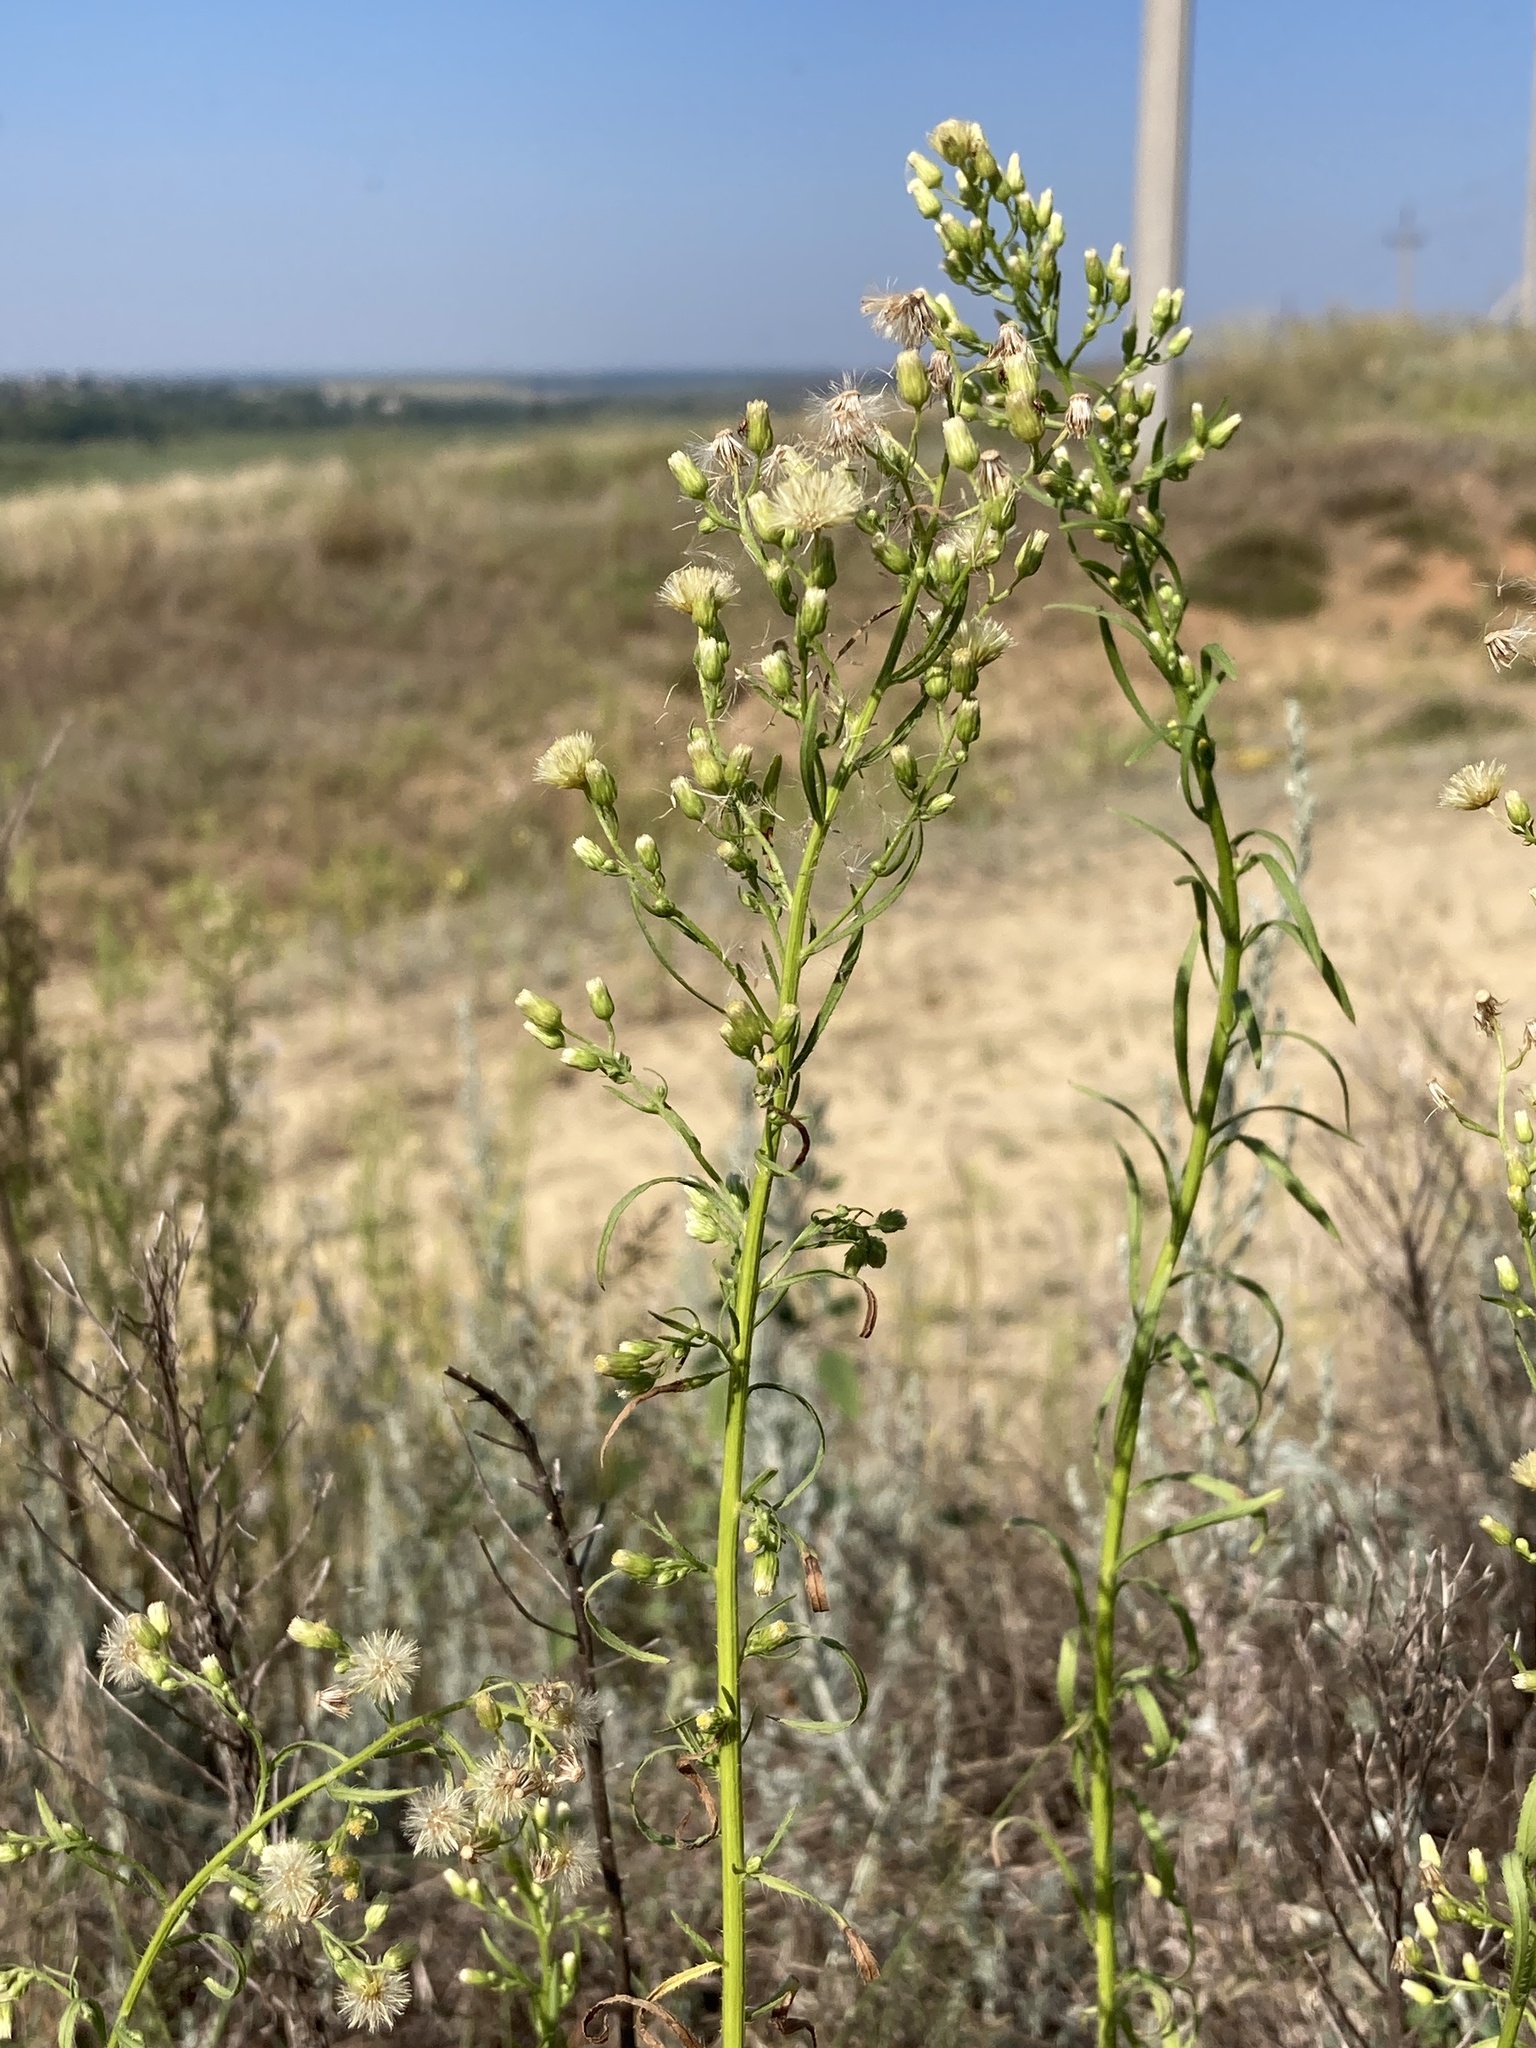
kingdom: Plantae
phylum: Tracheophyta
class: Magnoliopsida
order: Asterales
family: Asteraceae
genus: Erigeron
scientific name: Erigeron canadensis
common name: Canadian fleabane
